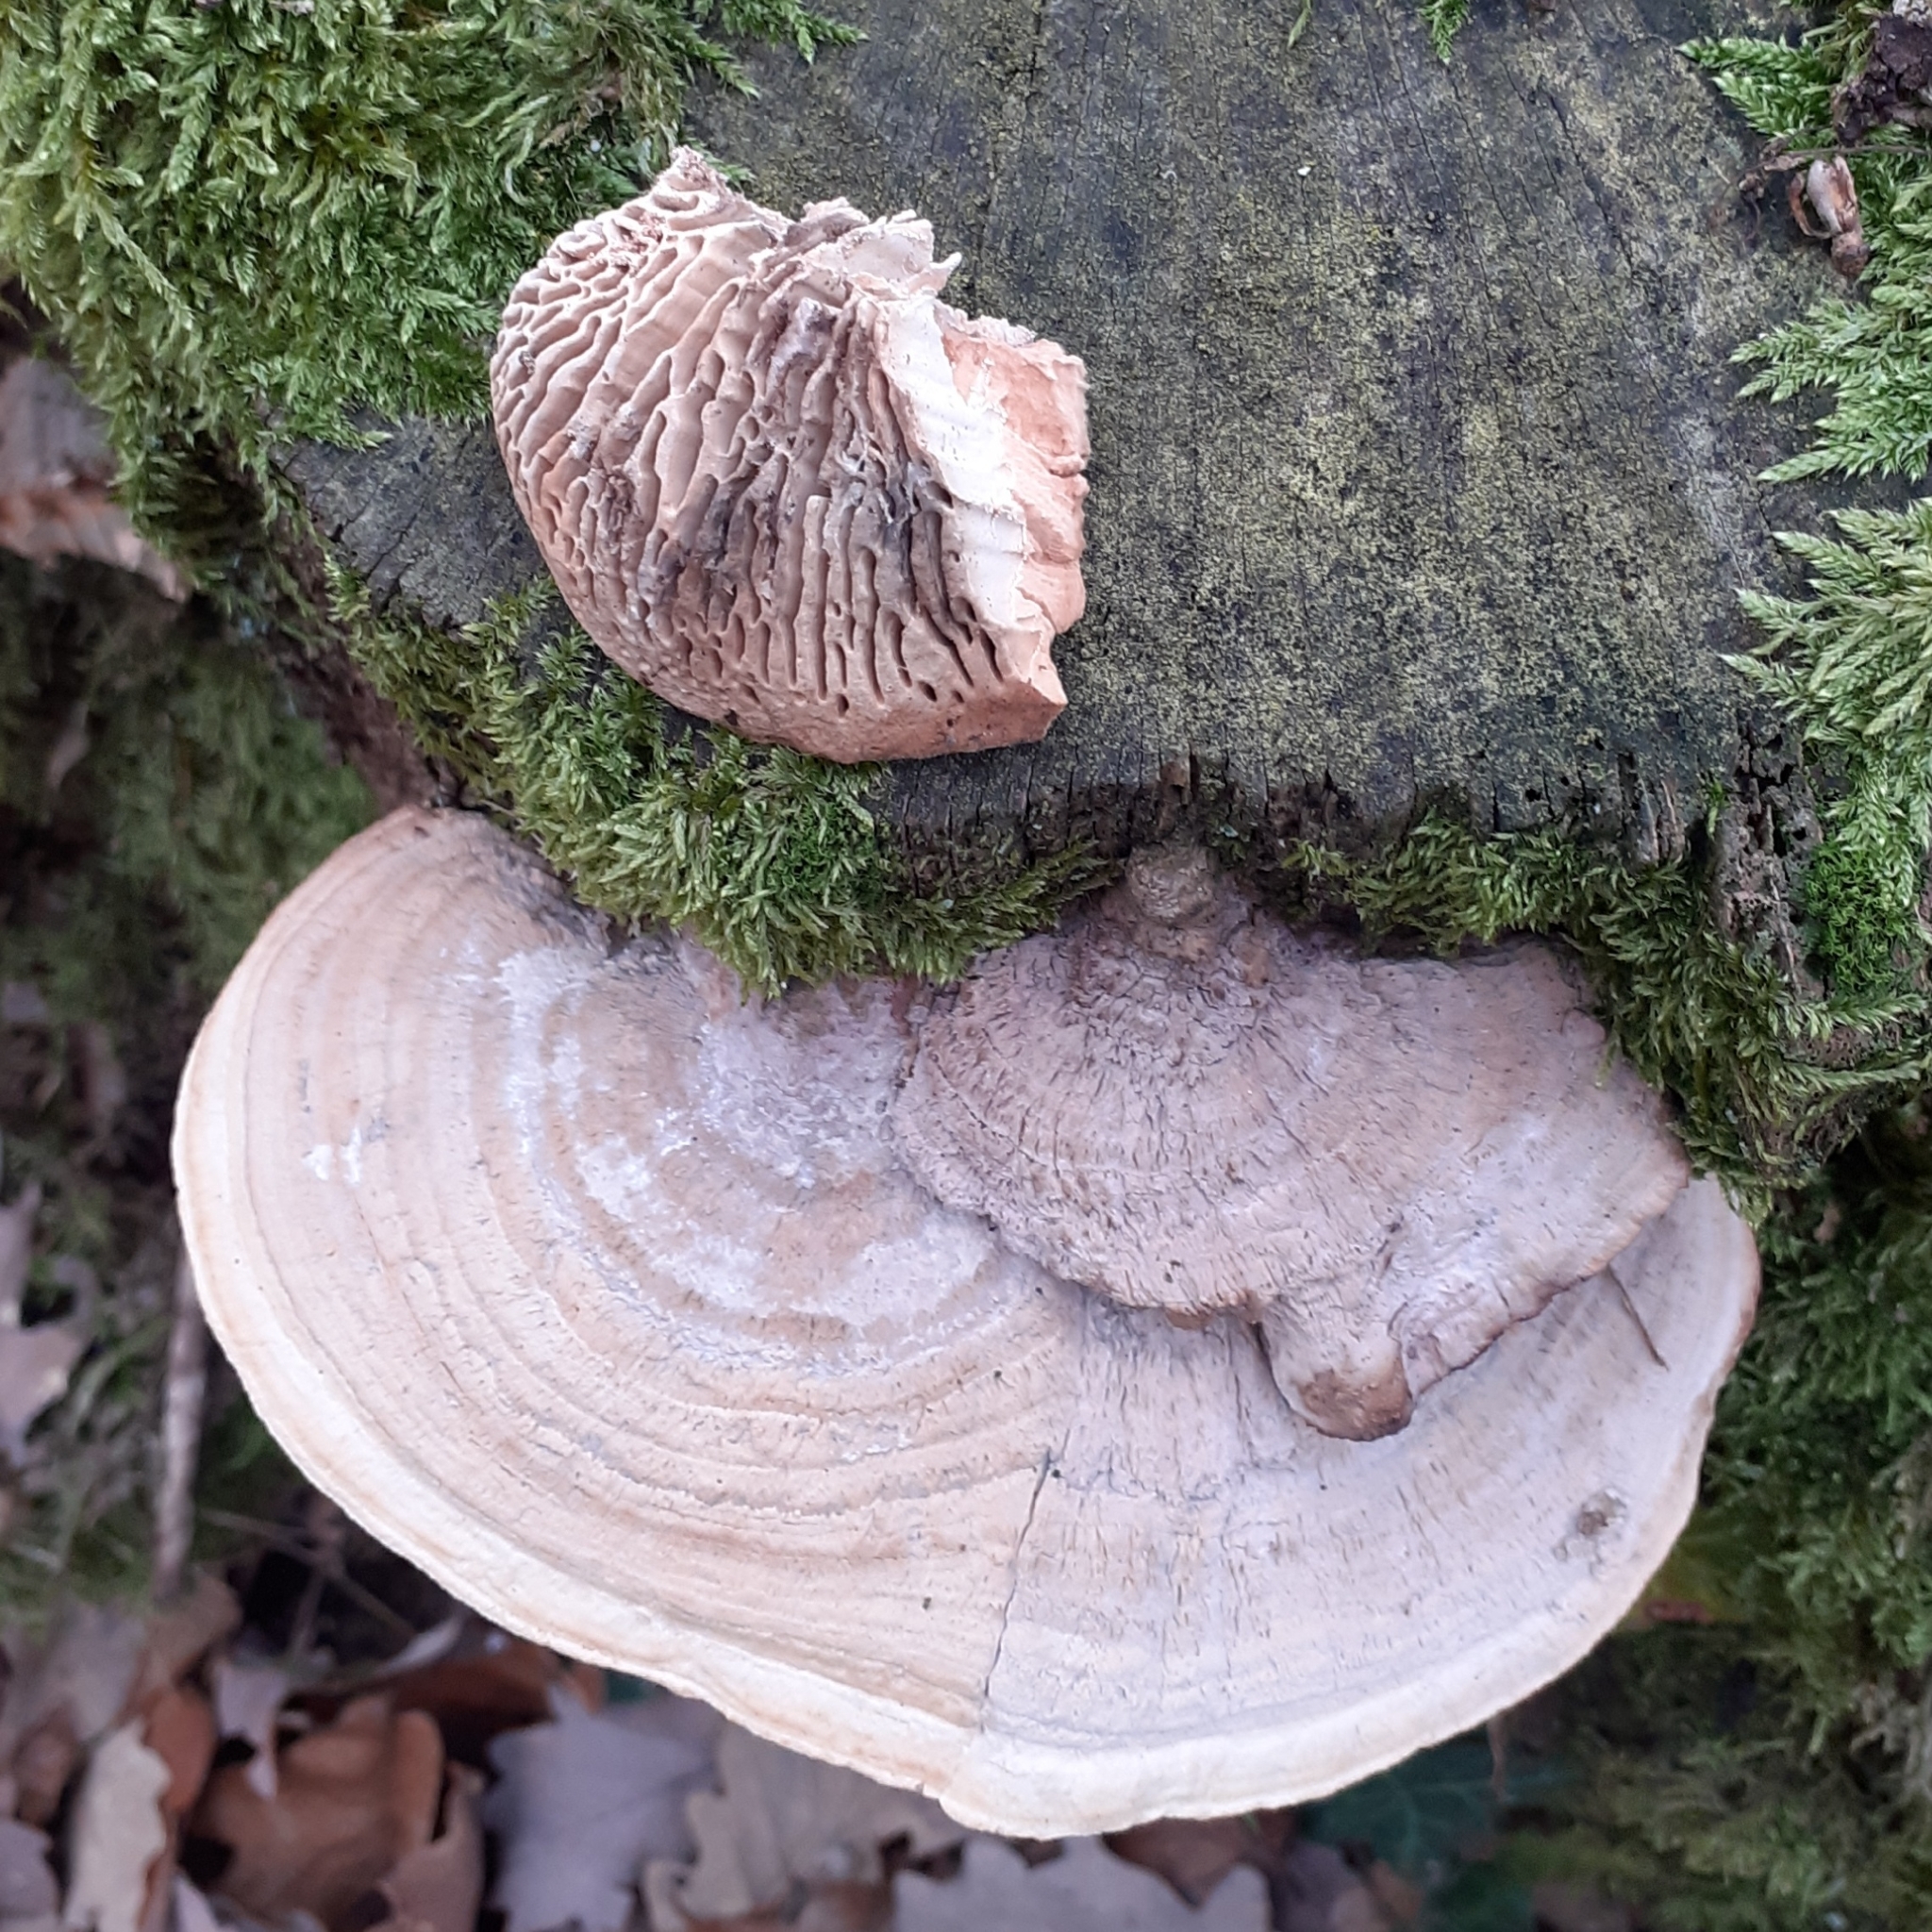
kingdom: Fungi
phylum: Basidiomycota
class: Agaricomycetes
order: Polyporales
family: Fomitopsidaceae
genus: Fomitopsis
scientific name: Fomitopsis
